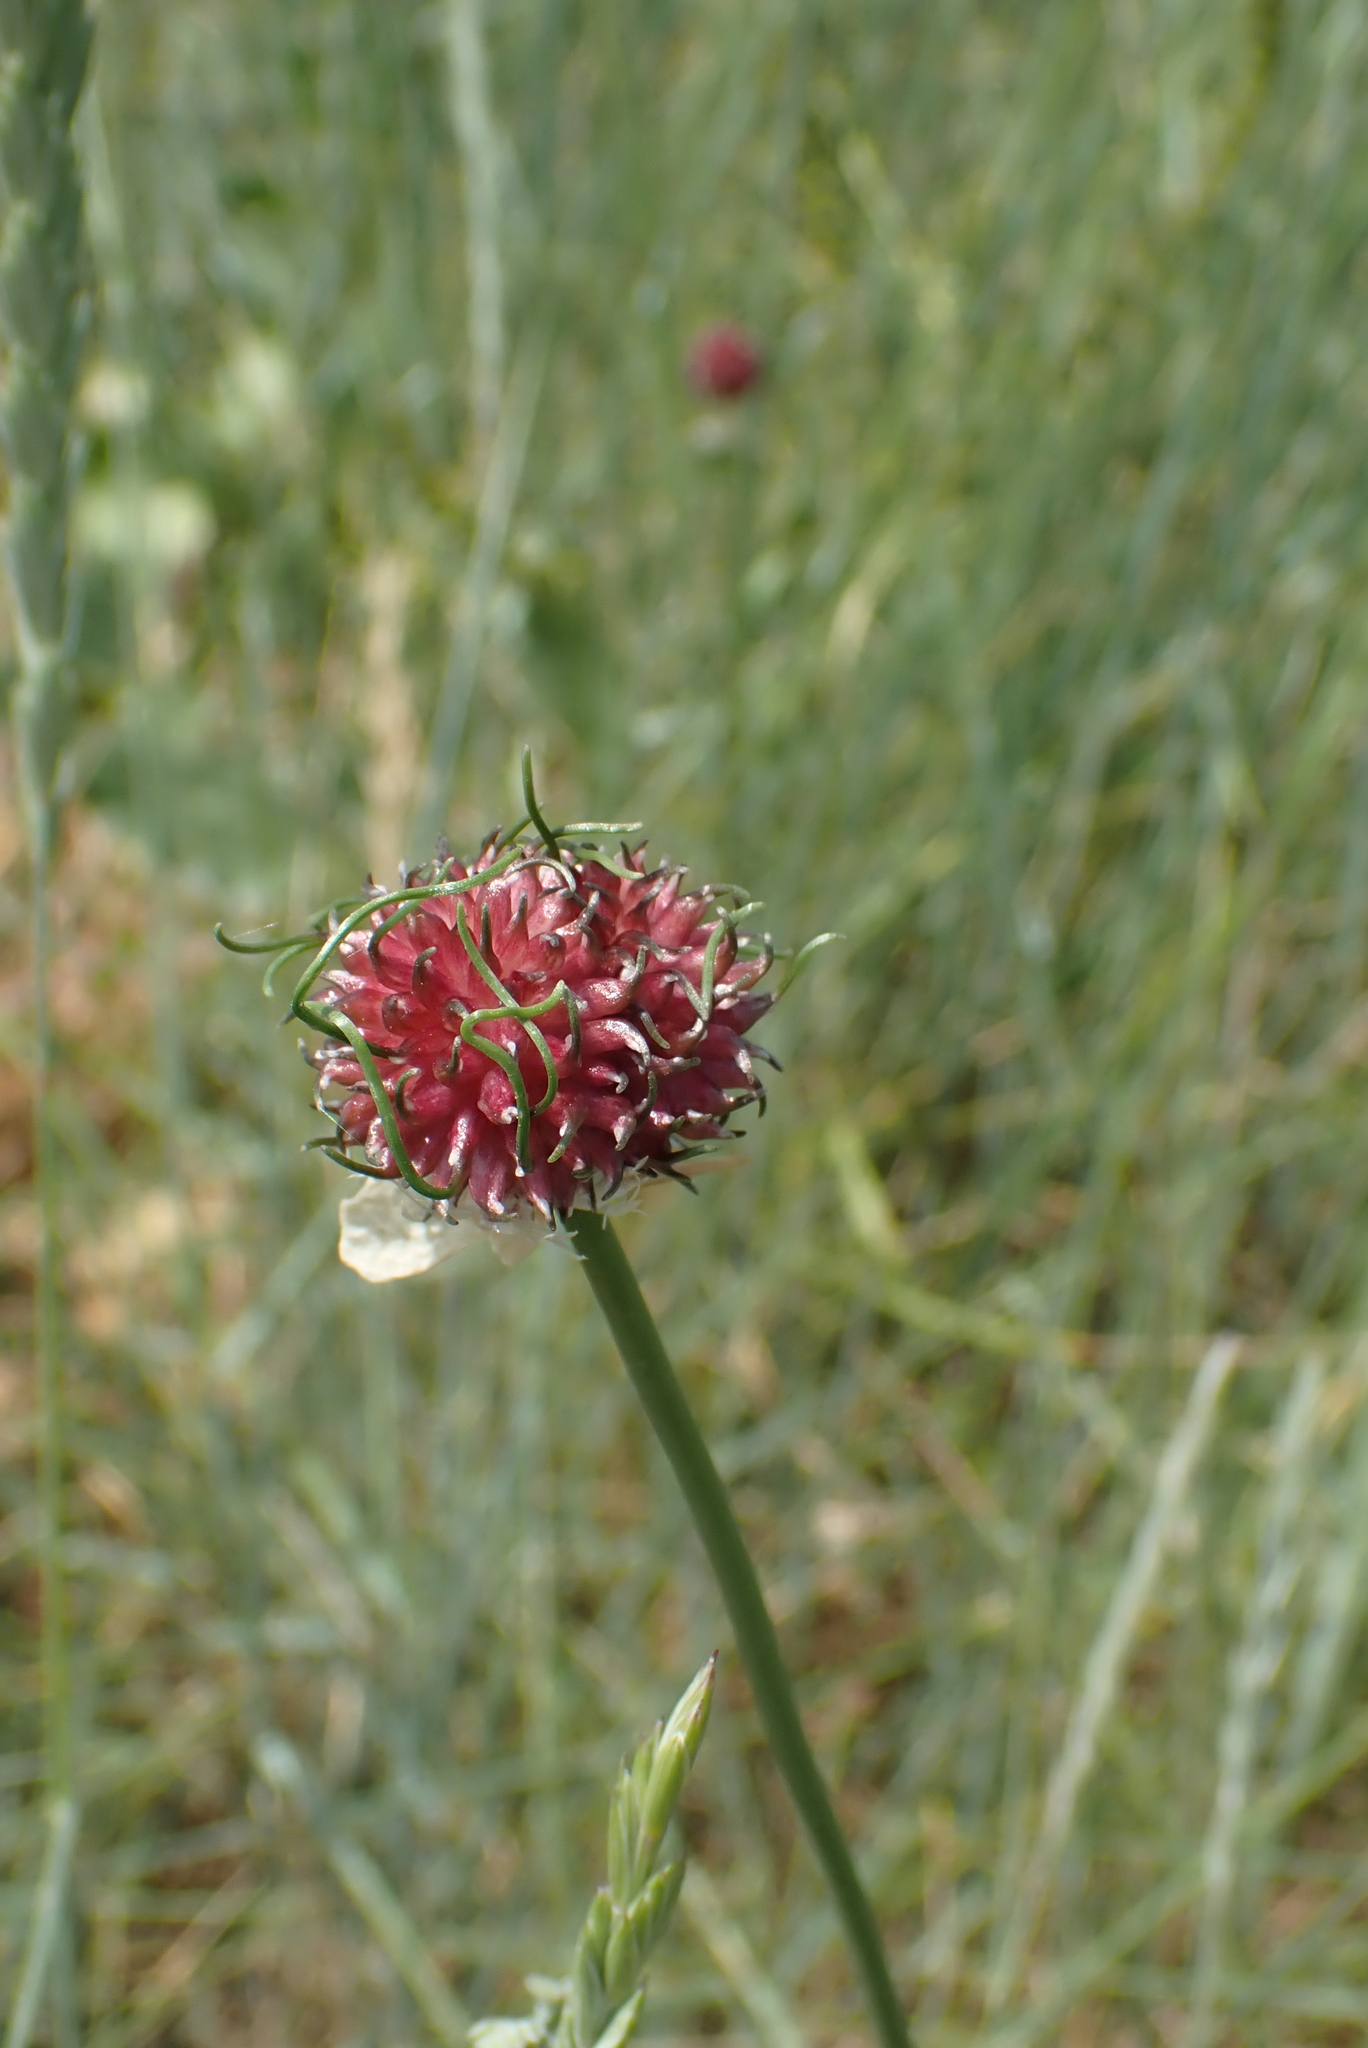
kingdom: Plantae
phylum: Tracheophyta
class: Liliopsida
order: Asparagales
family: Amaryllidaceae
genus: Allium
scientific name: Allium vineale
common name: Crow garlic
